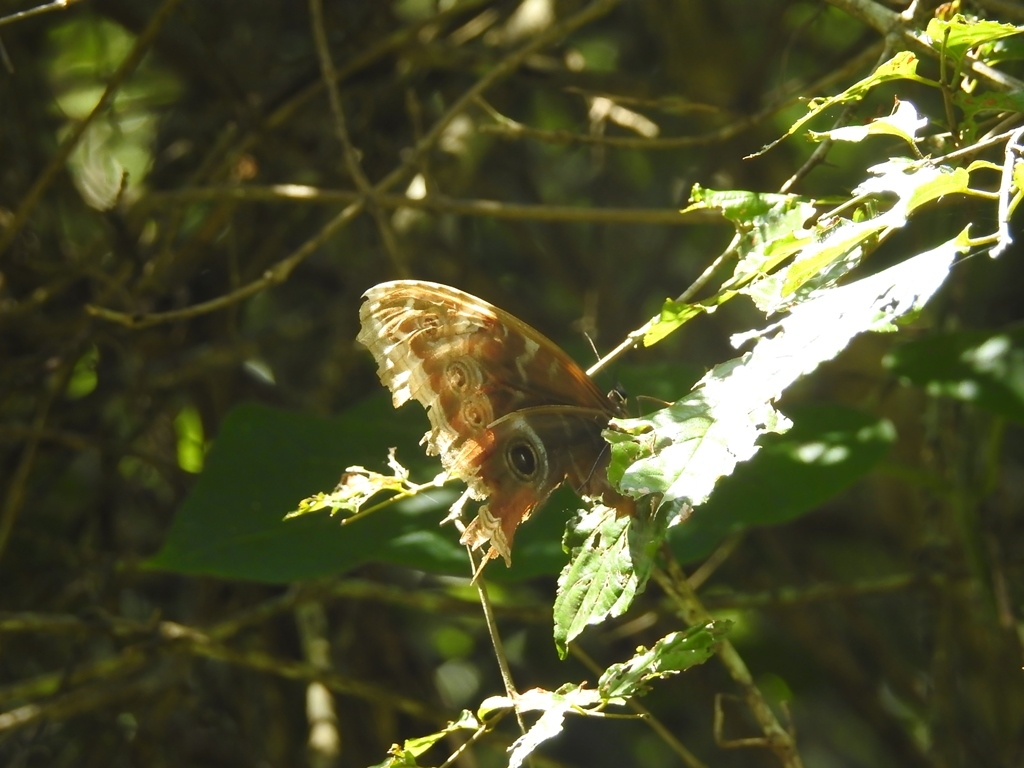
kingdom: Animalia
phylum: Arthropoda
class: Insecta
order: Lepidoptera
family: Nymphalidae
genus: Morpho
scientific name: Morpho helenor
